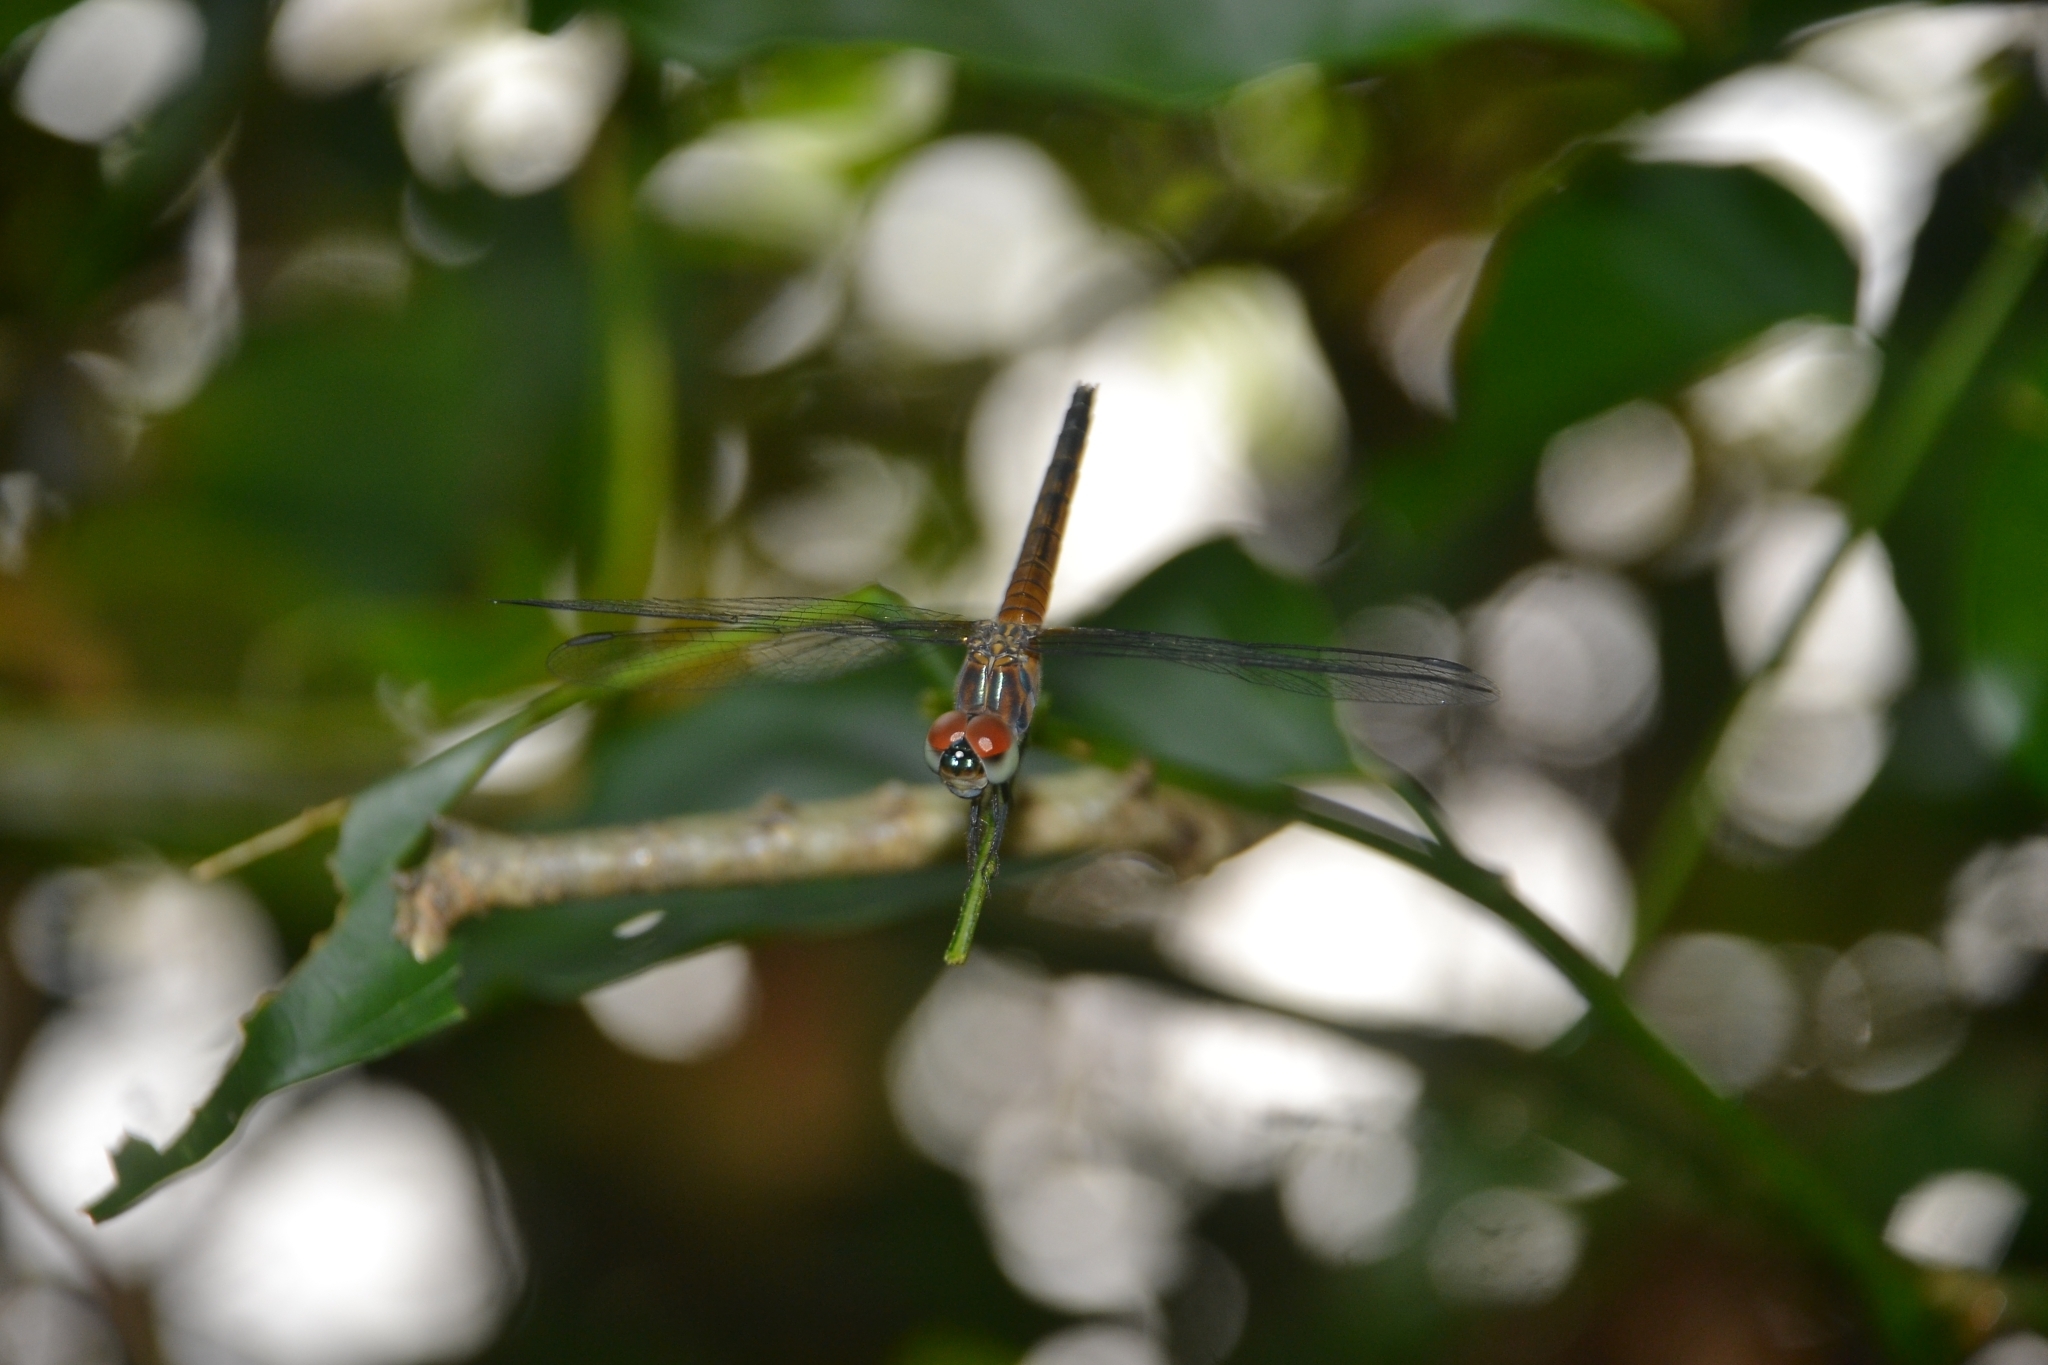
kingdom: Animalia
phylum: Arthropoda
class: Insecta
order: Odonata
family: Libellulidae
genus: Brachydiplax
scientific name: Brachydiplax chalybea
